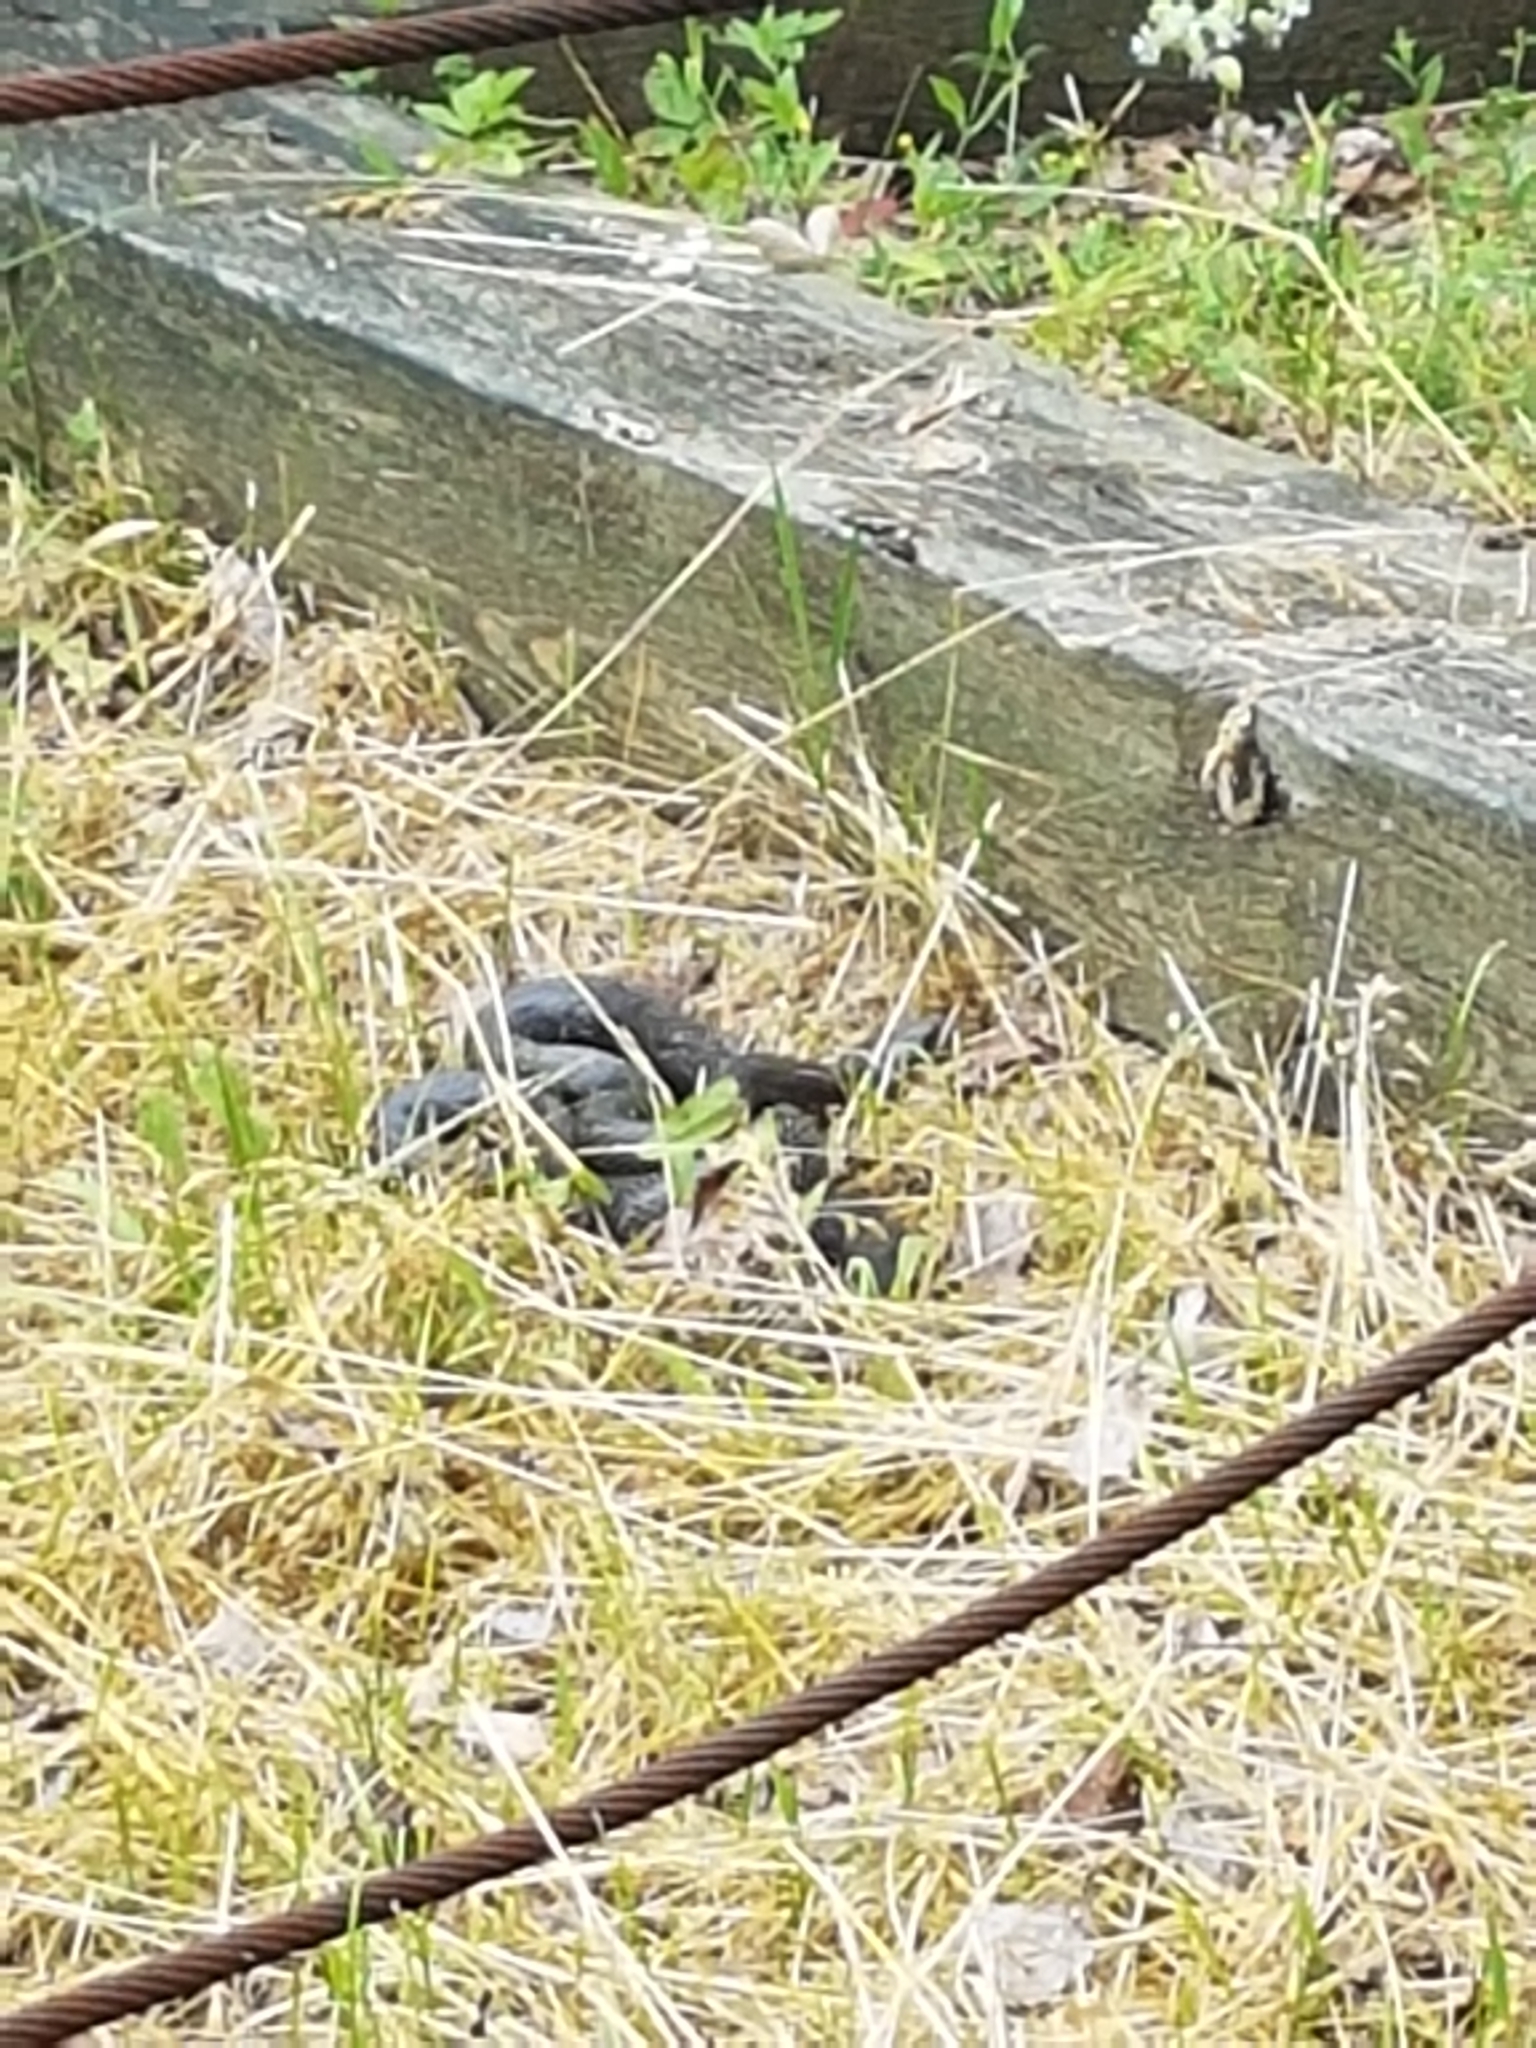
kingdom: Animalia
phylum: Chordata
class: Squamata
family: Colubridae
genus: Pantherophis
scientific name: Pantherophis spiloides
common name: Gray rat snake
